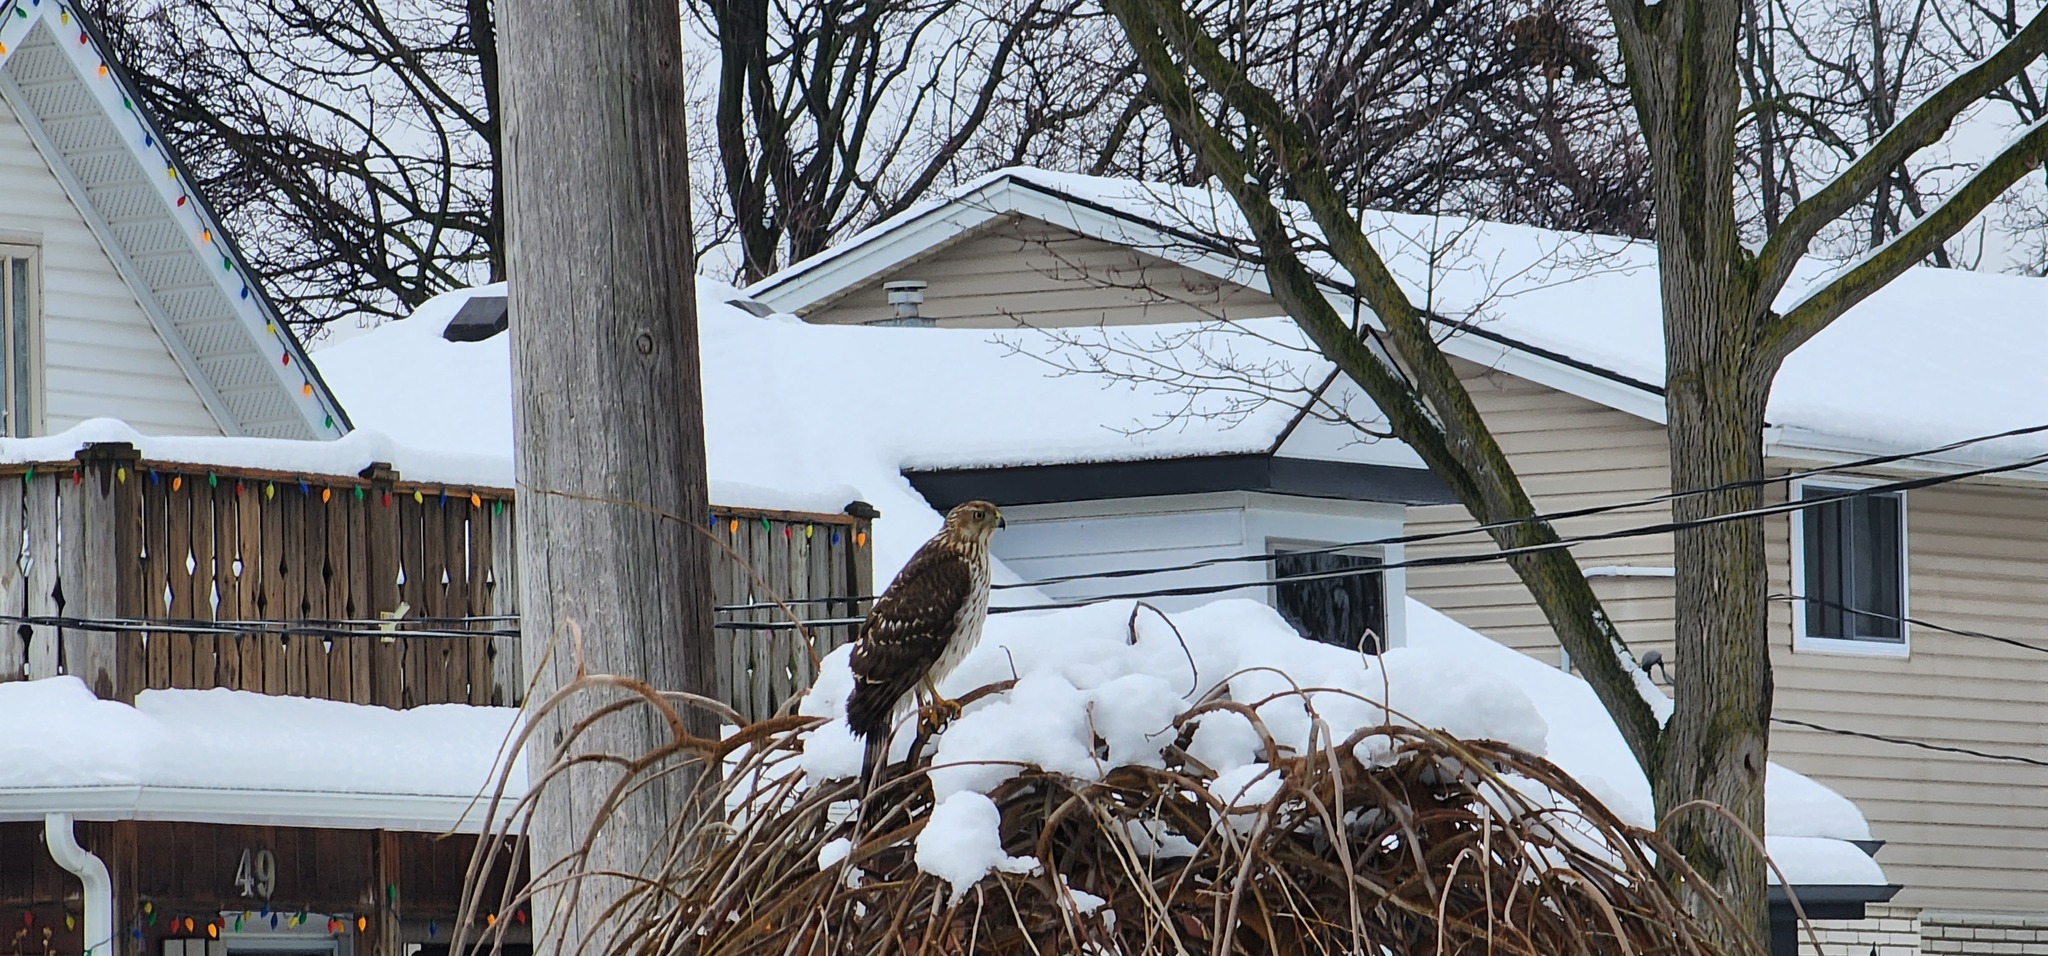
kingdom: Animalia
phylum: Chordata
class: Aves
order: Accipitriformes
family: Accipitridae
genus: Accipiter
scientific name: Accipiter cooperii
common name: Cooper's hawk
